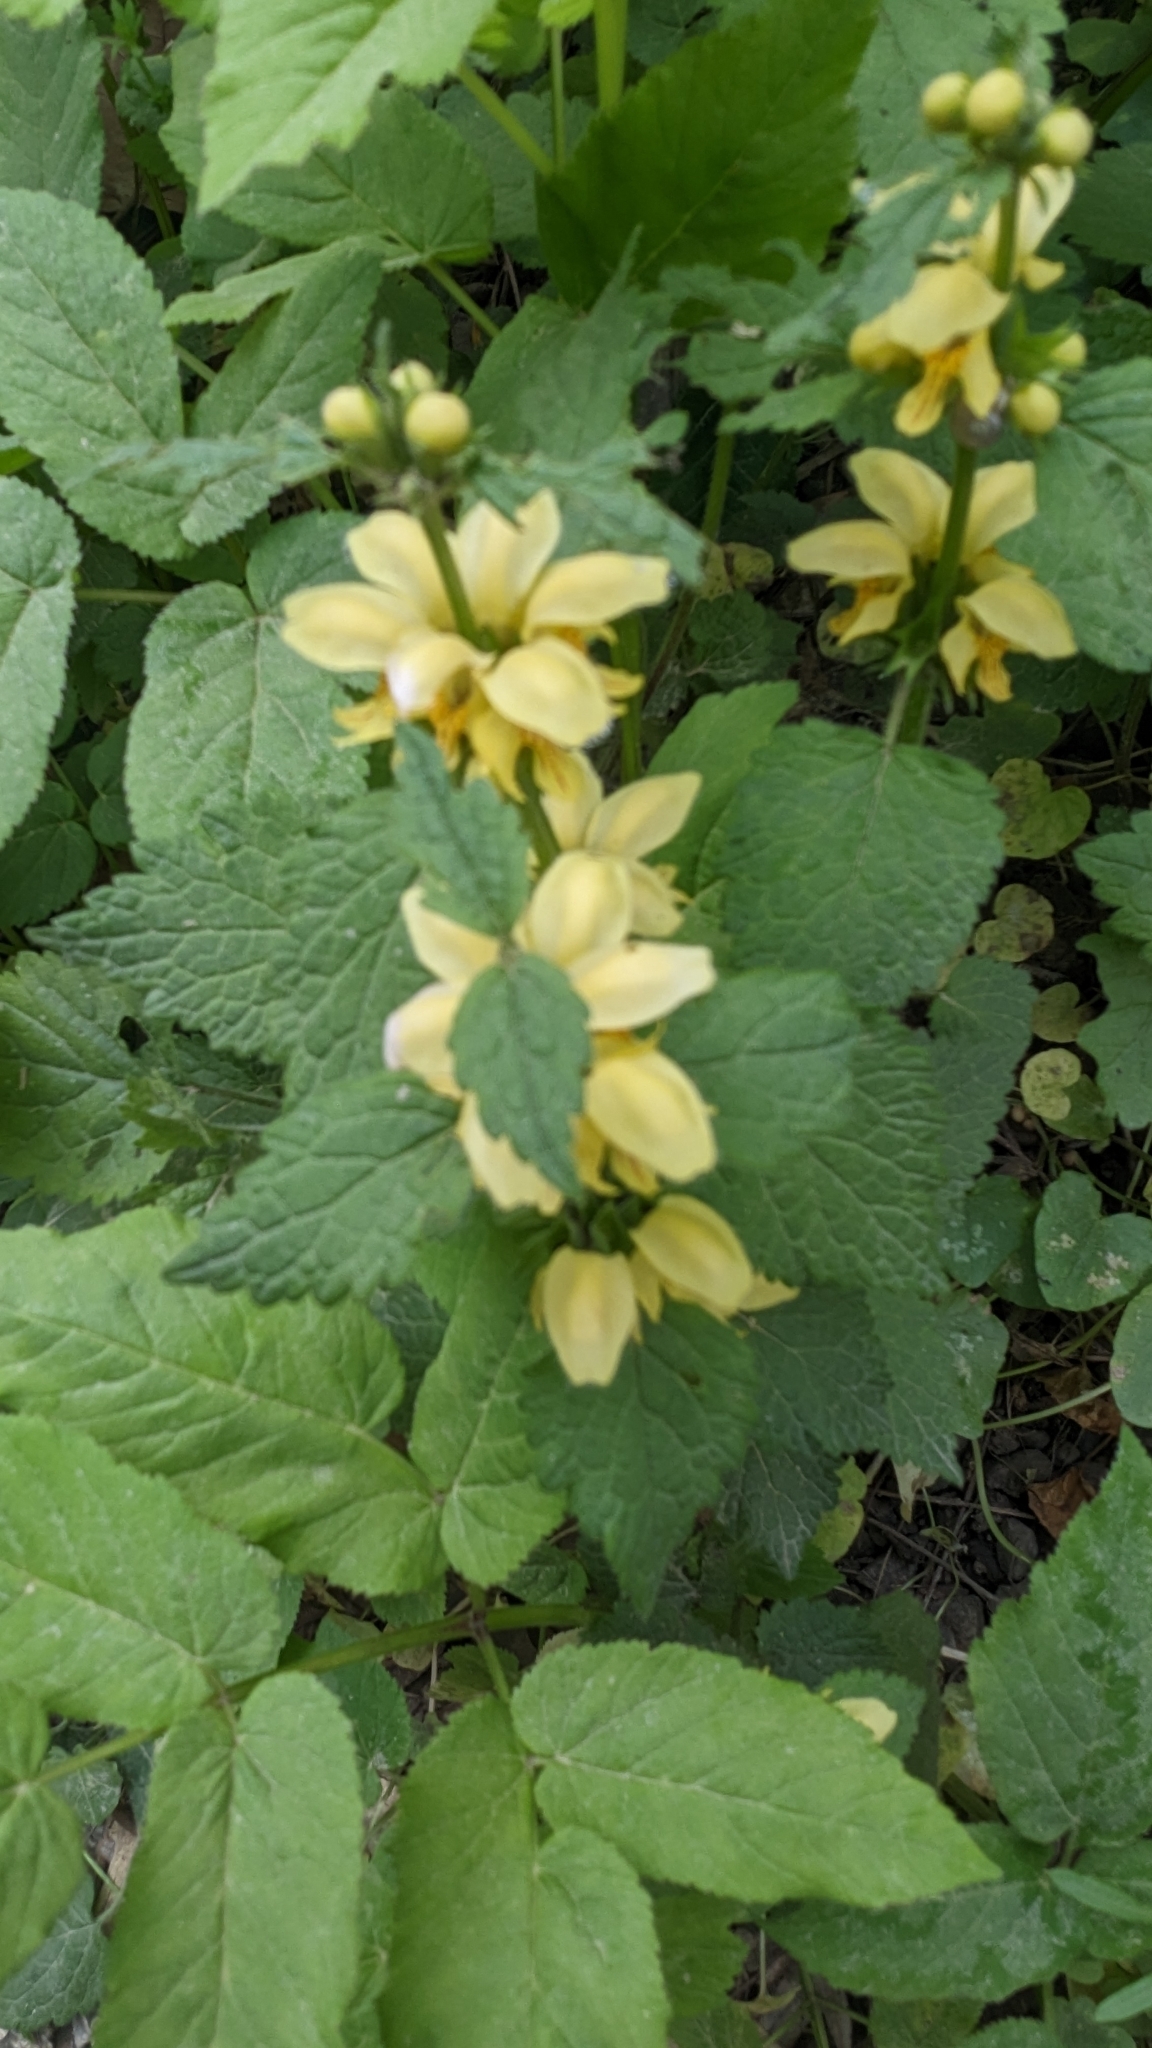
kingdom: Plantae
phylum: Tracheophyta
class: Magnoliopsida
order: Lamiales
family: Lamiaceae
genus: Lamium
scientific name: Lamium galeobdolon
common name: Yellow archangel
